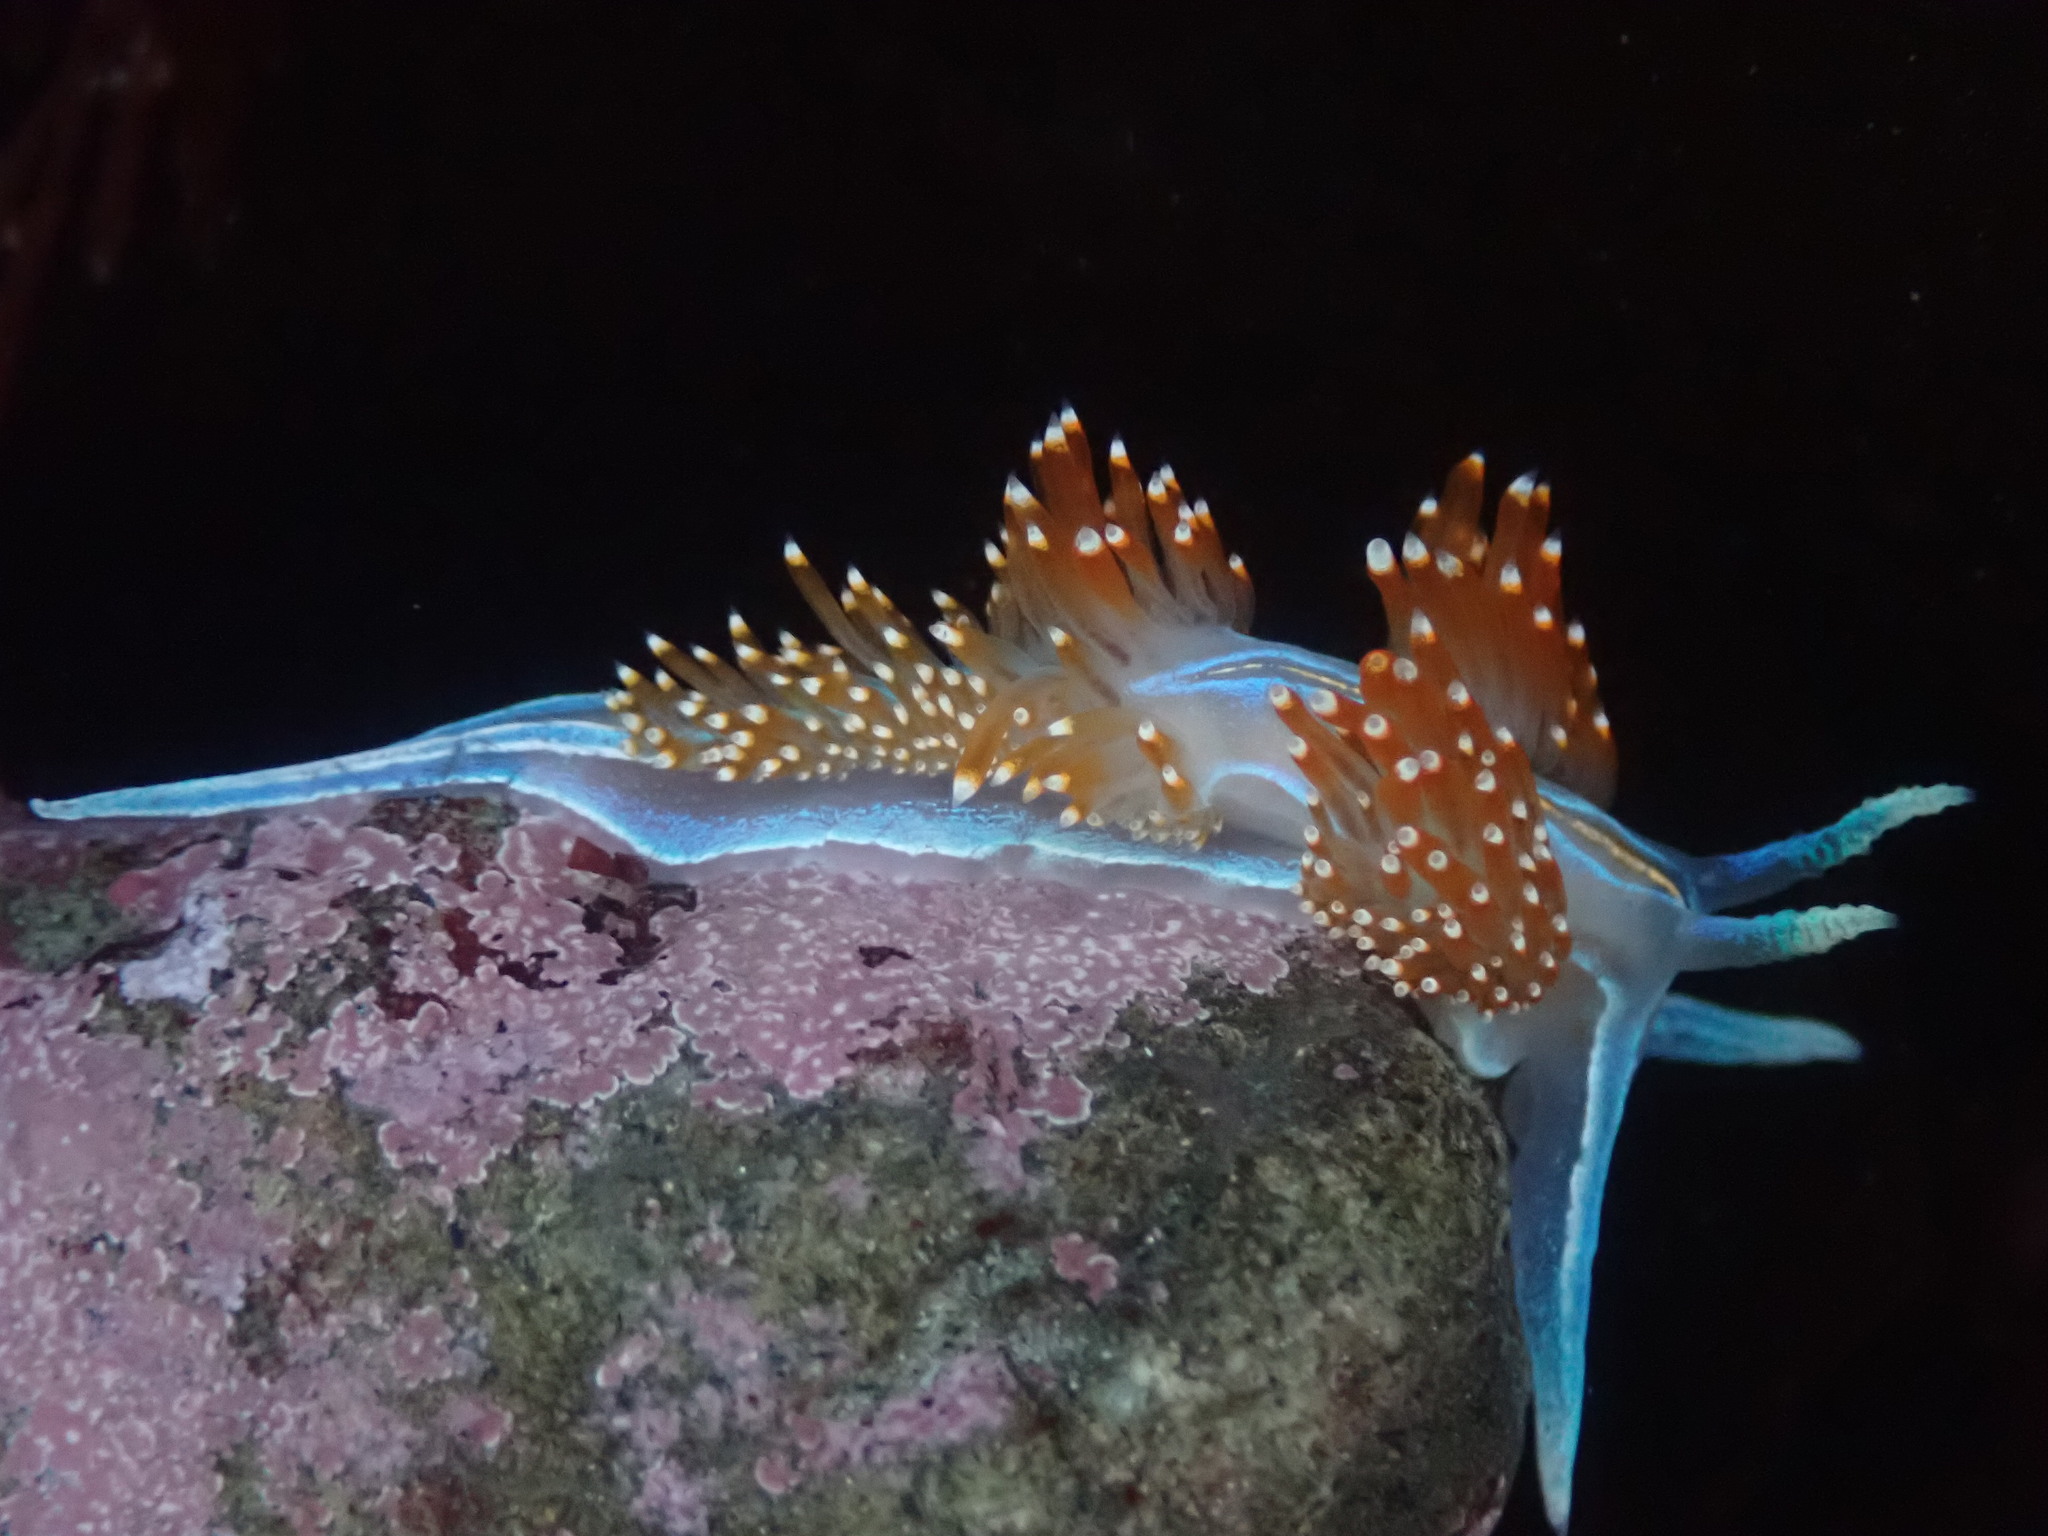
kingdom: Animalia
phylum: Mollusca
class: Gastropoda
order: Nudibranchia
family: Myrrhinidae
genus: Hermissenda
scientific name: Hermissenda opalescens
